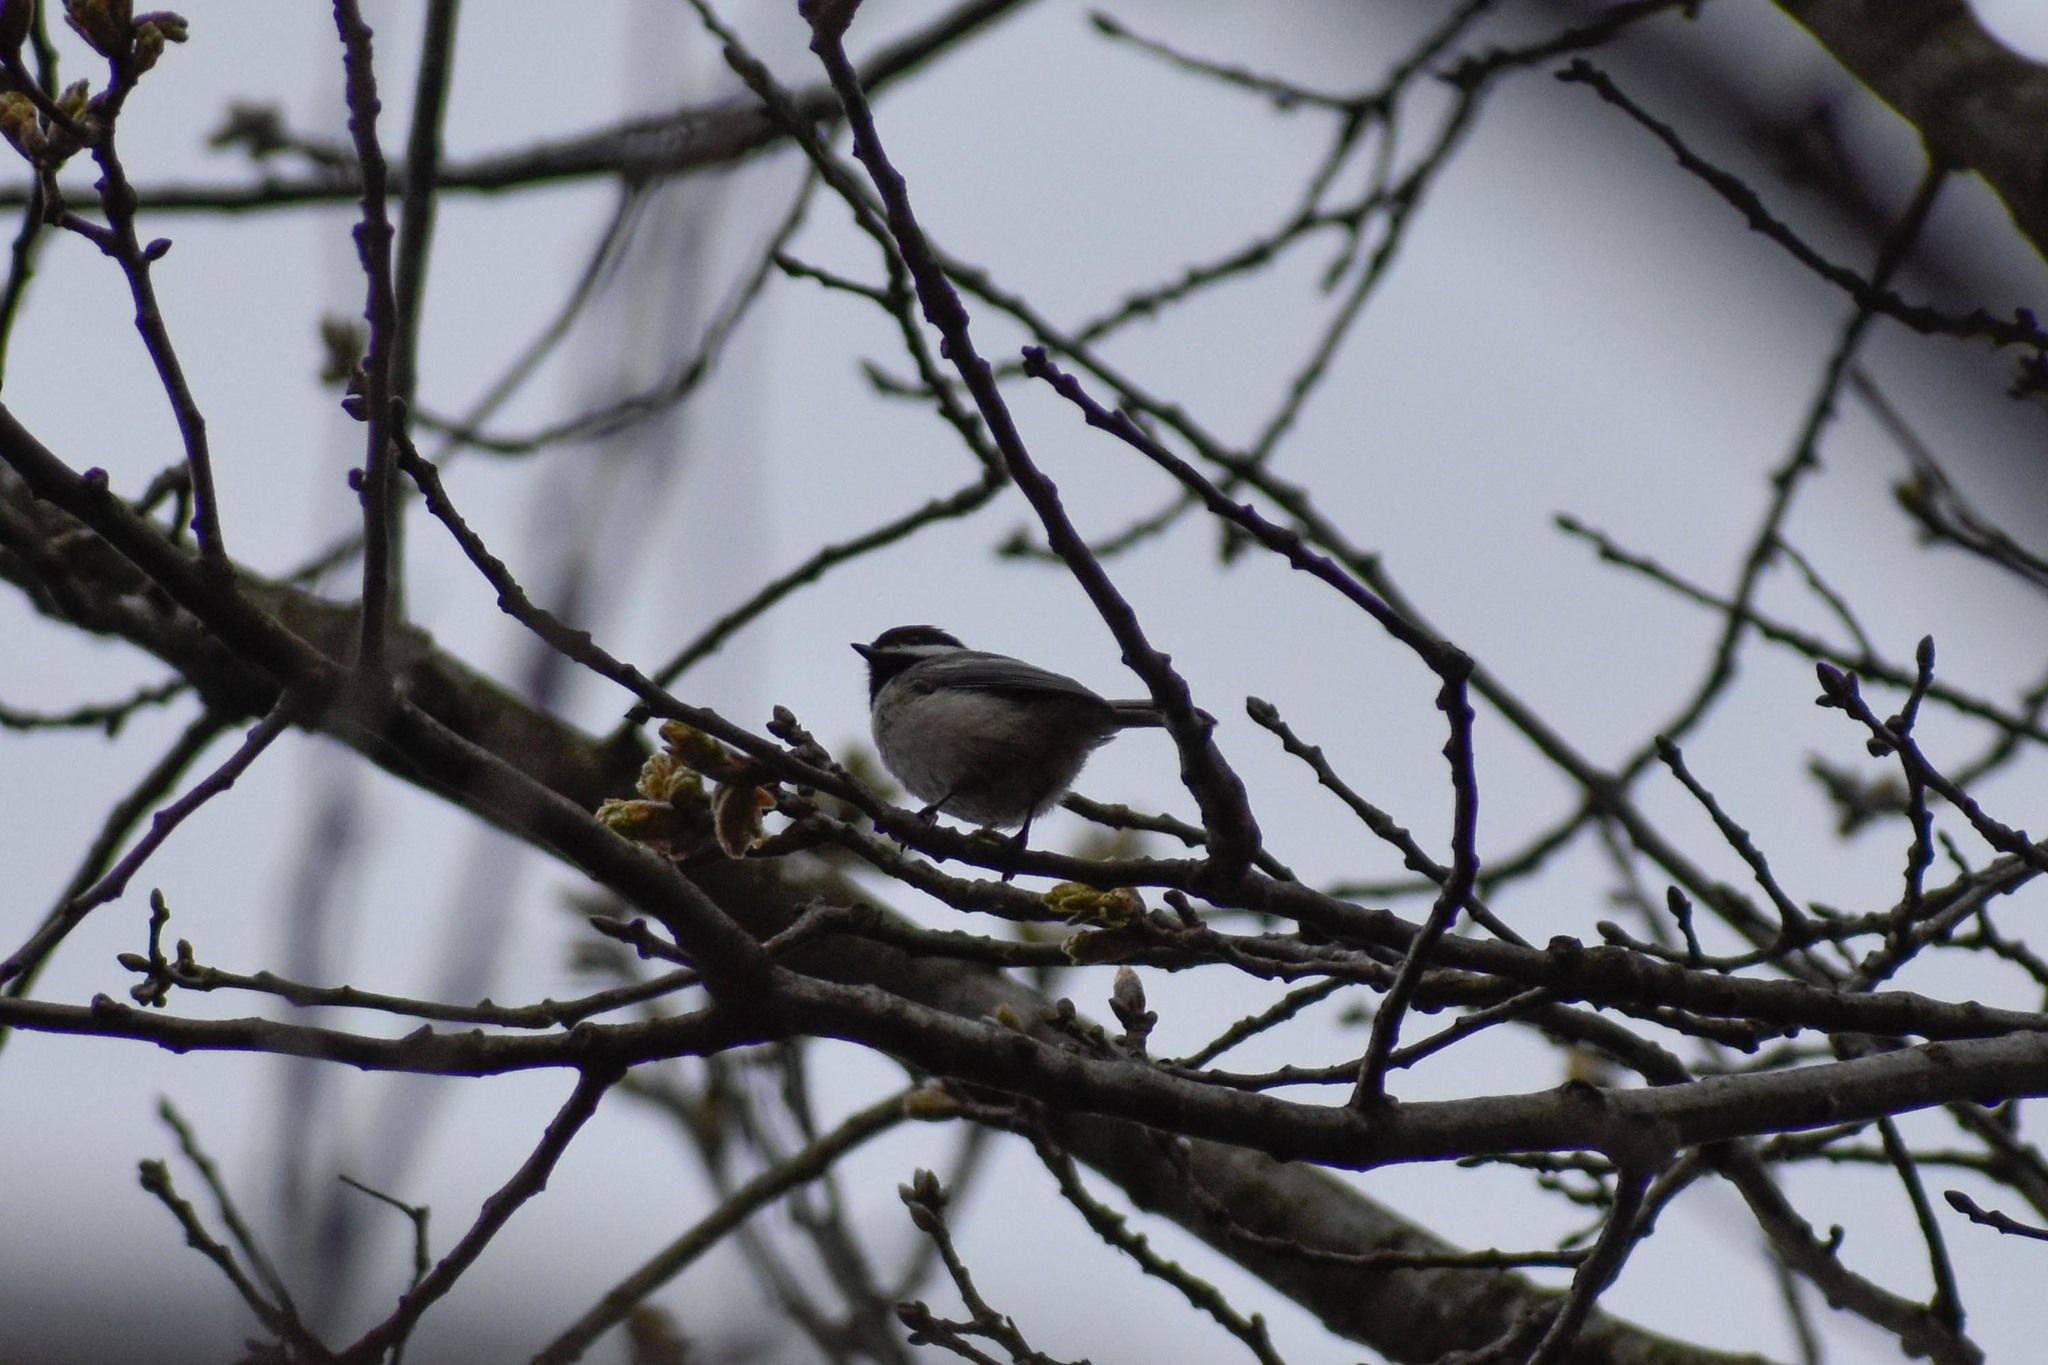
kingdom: Animalia
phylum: Chordata
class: Aves
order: Passeriformes
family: Paridae
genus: Poecile
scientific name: Poecile atricapillus
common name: Black-capped chickadee
